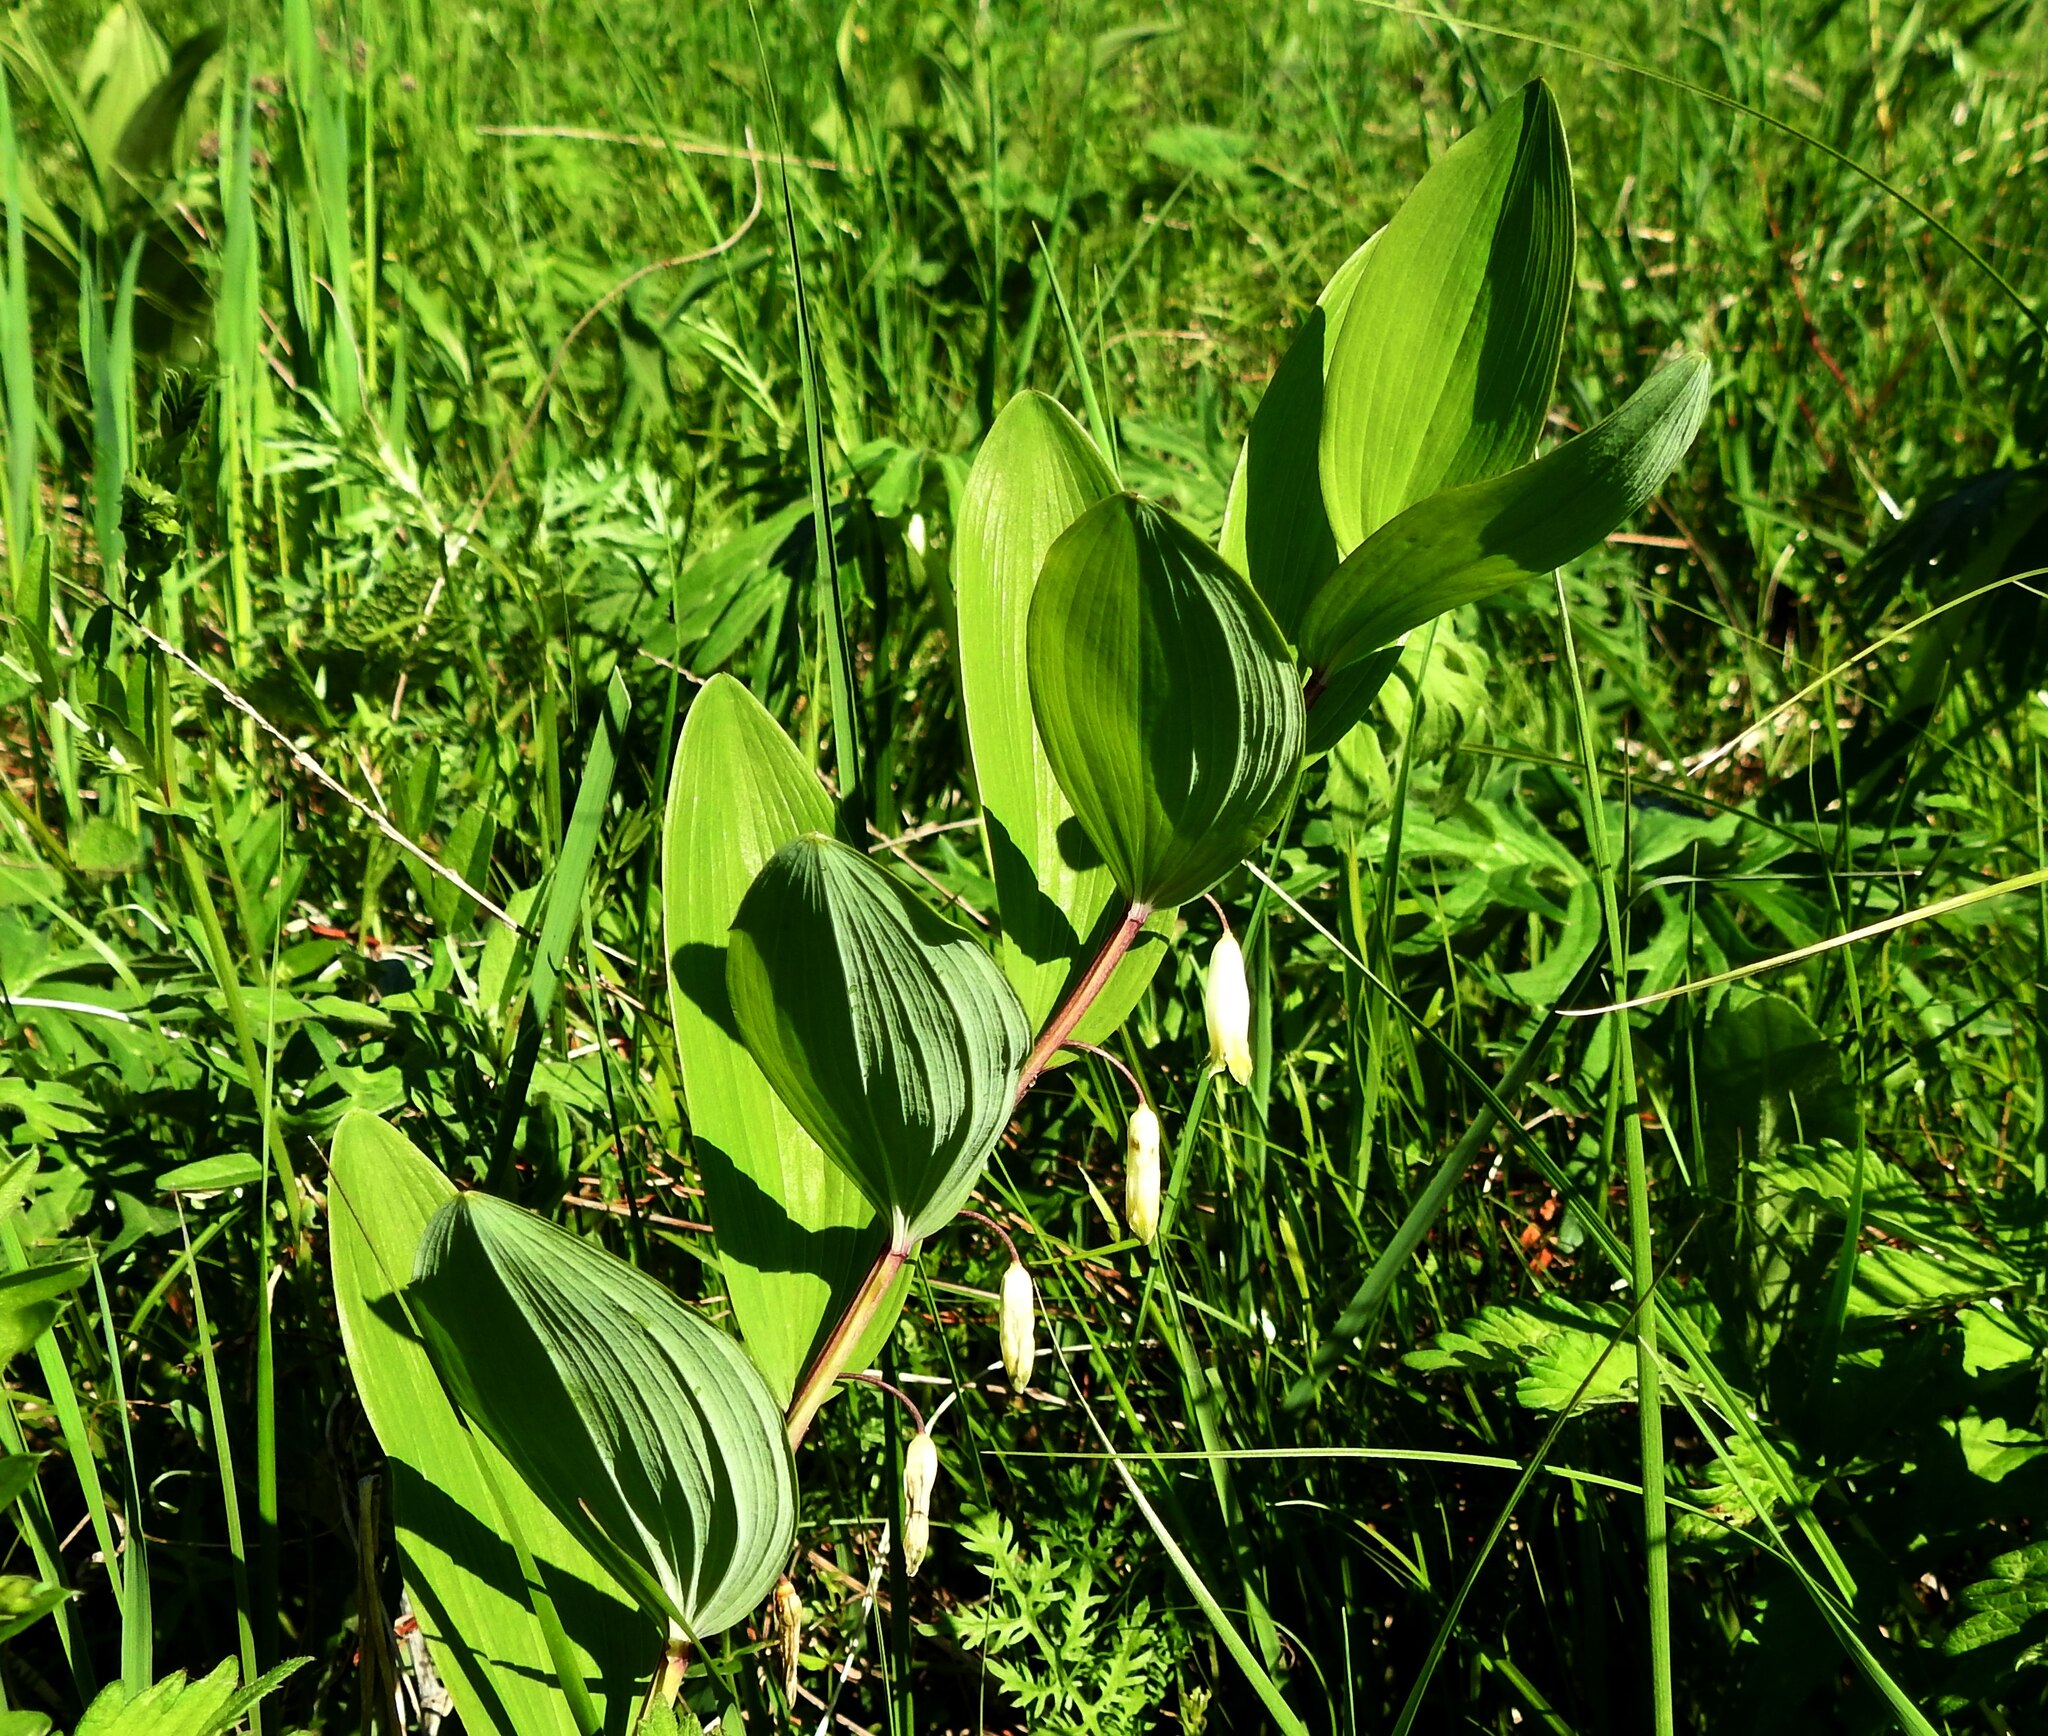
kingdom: Plantae
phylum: Tracheophyta
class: Liliopsida
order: Asparagales
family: Asparagaceae
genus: Polygonatum
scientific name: Polygonatum odoratum
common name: Angular solomon's-seal
